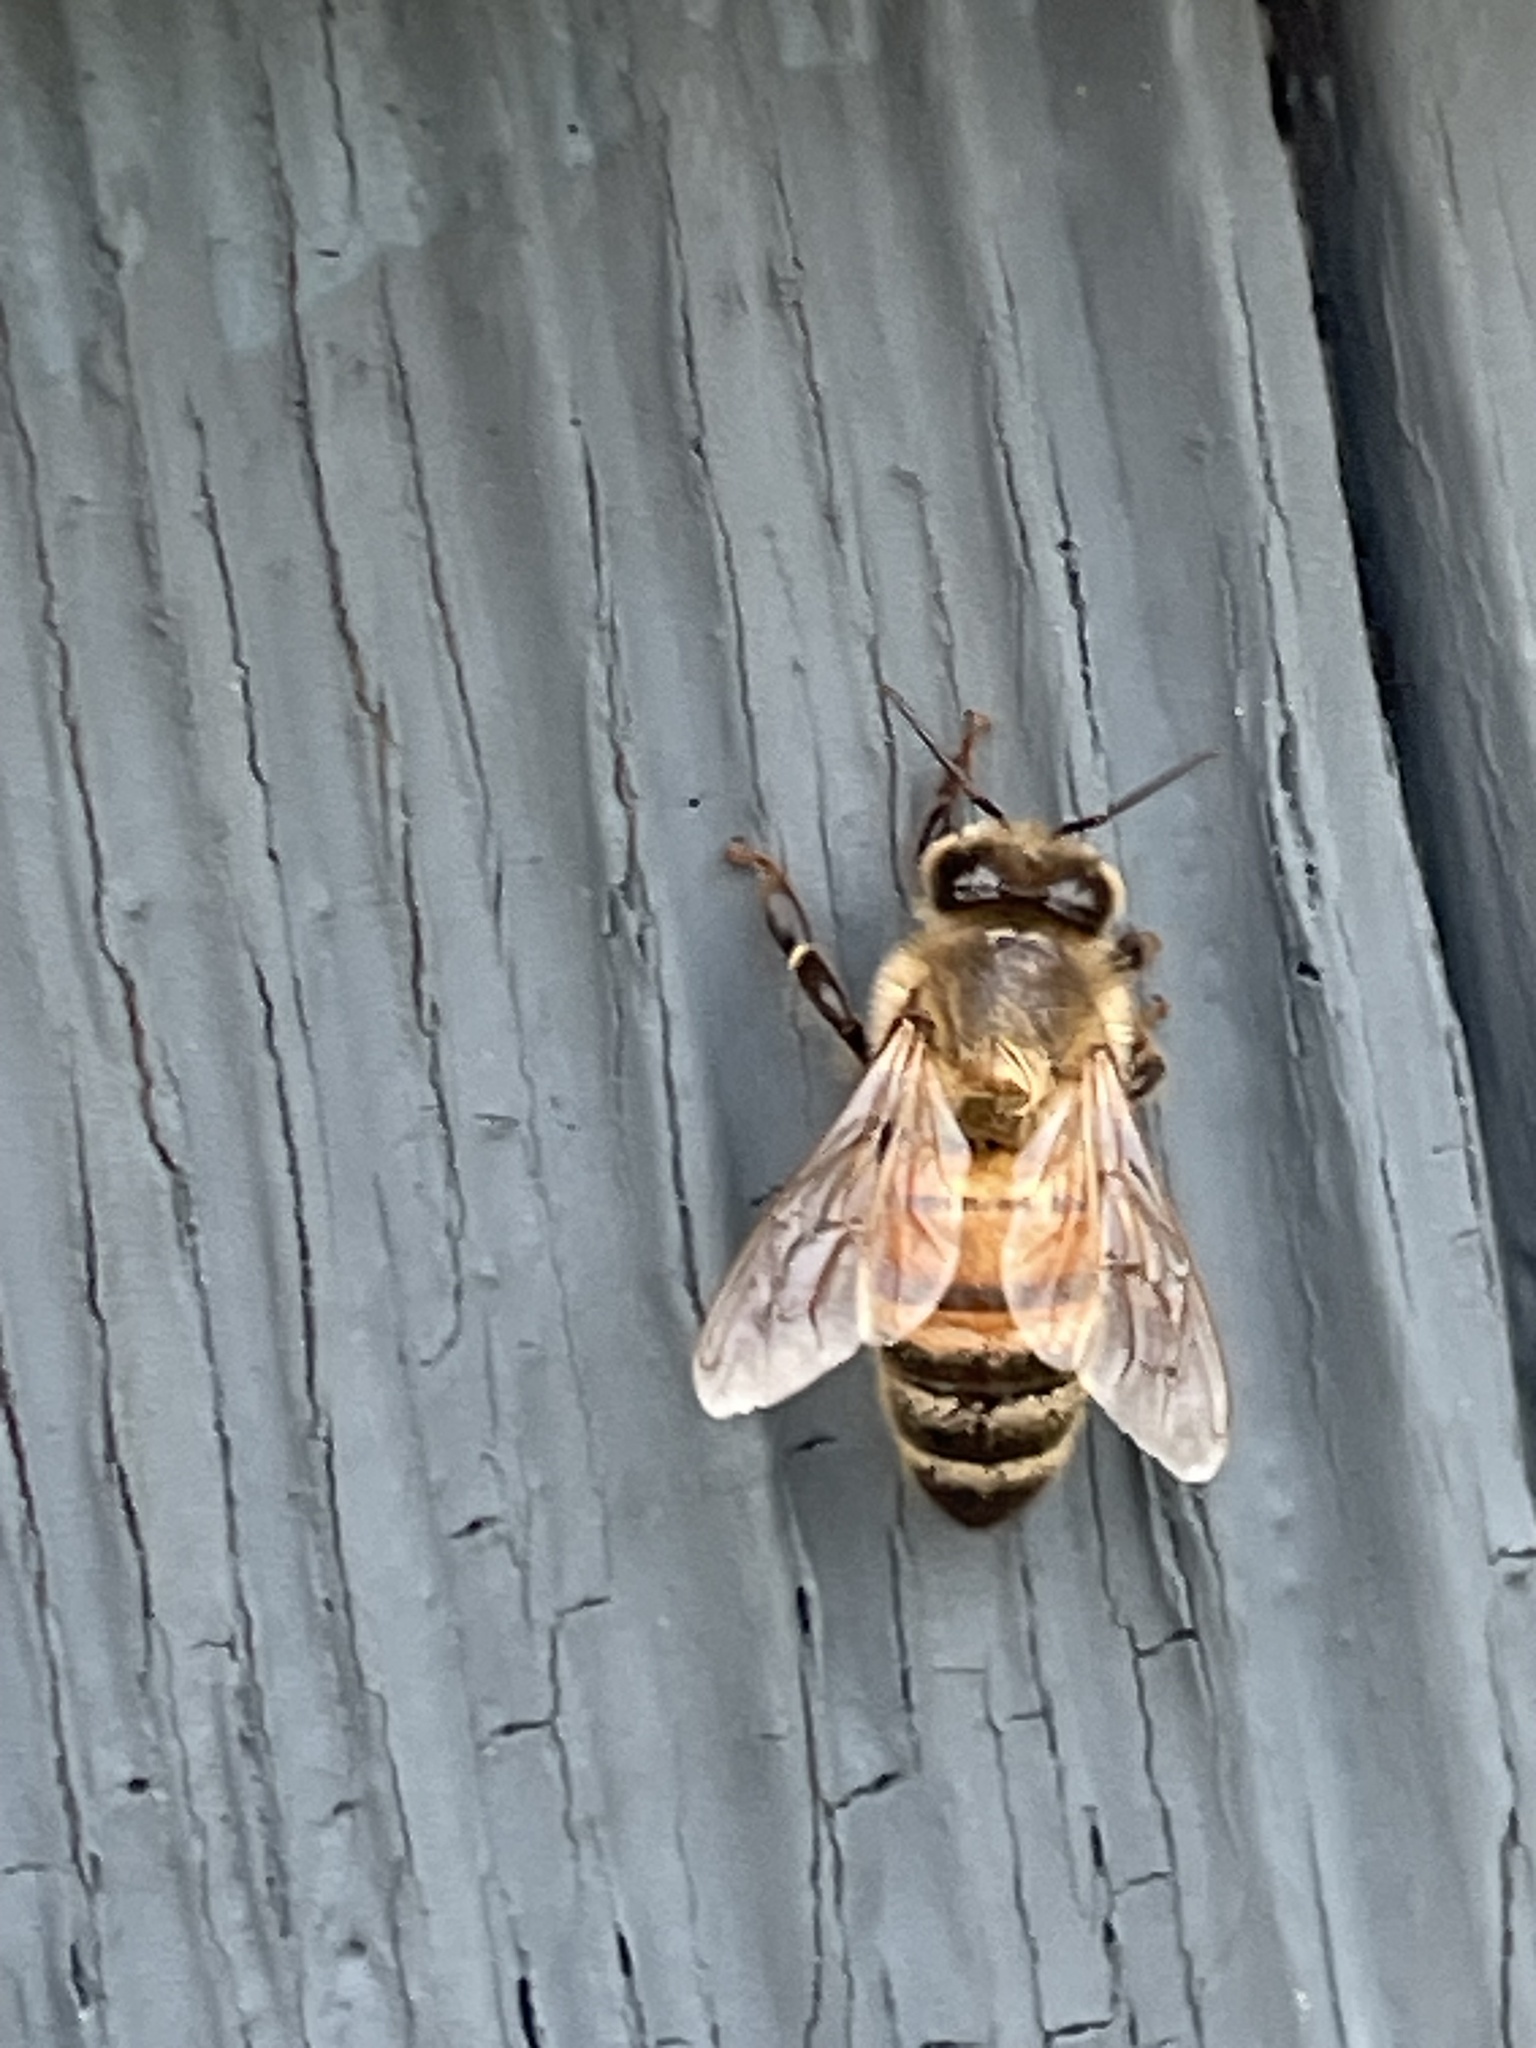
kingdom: Animalia
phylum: Arthropoda
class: Insecta
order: Hymenoptera
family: Apidae
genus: Apis
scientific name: Apis mellifera
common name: Honey bee
